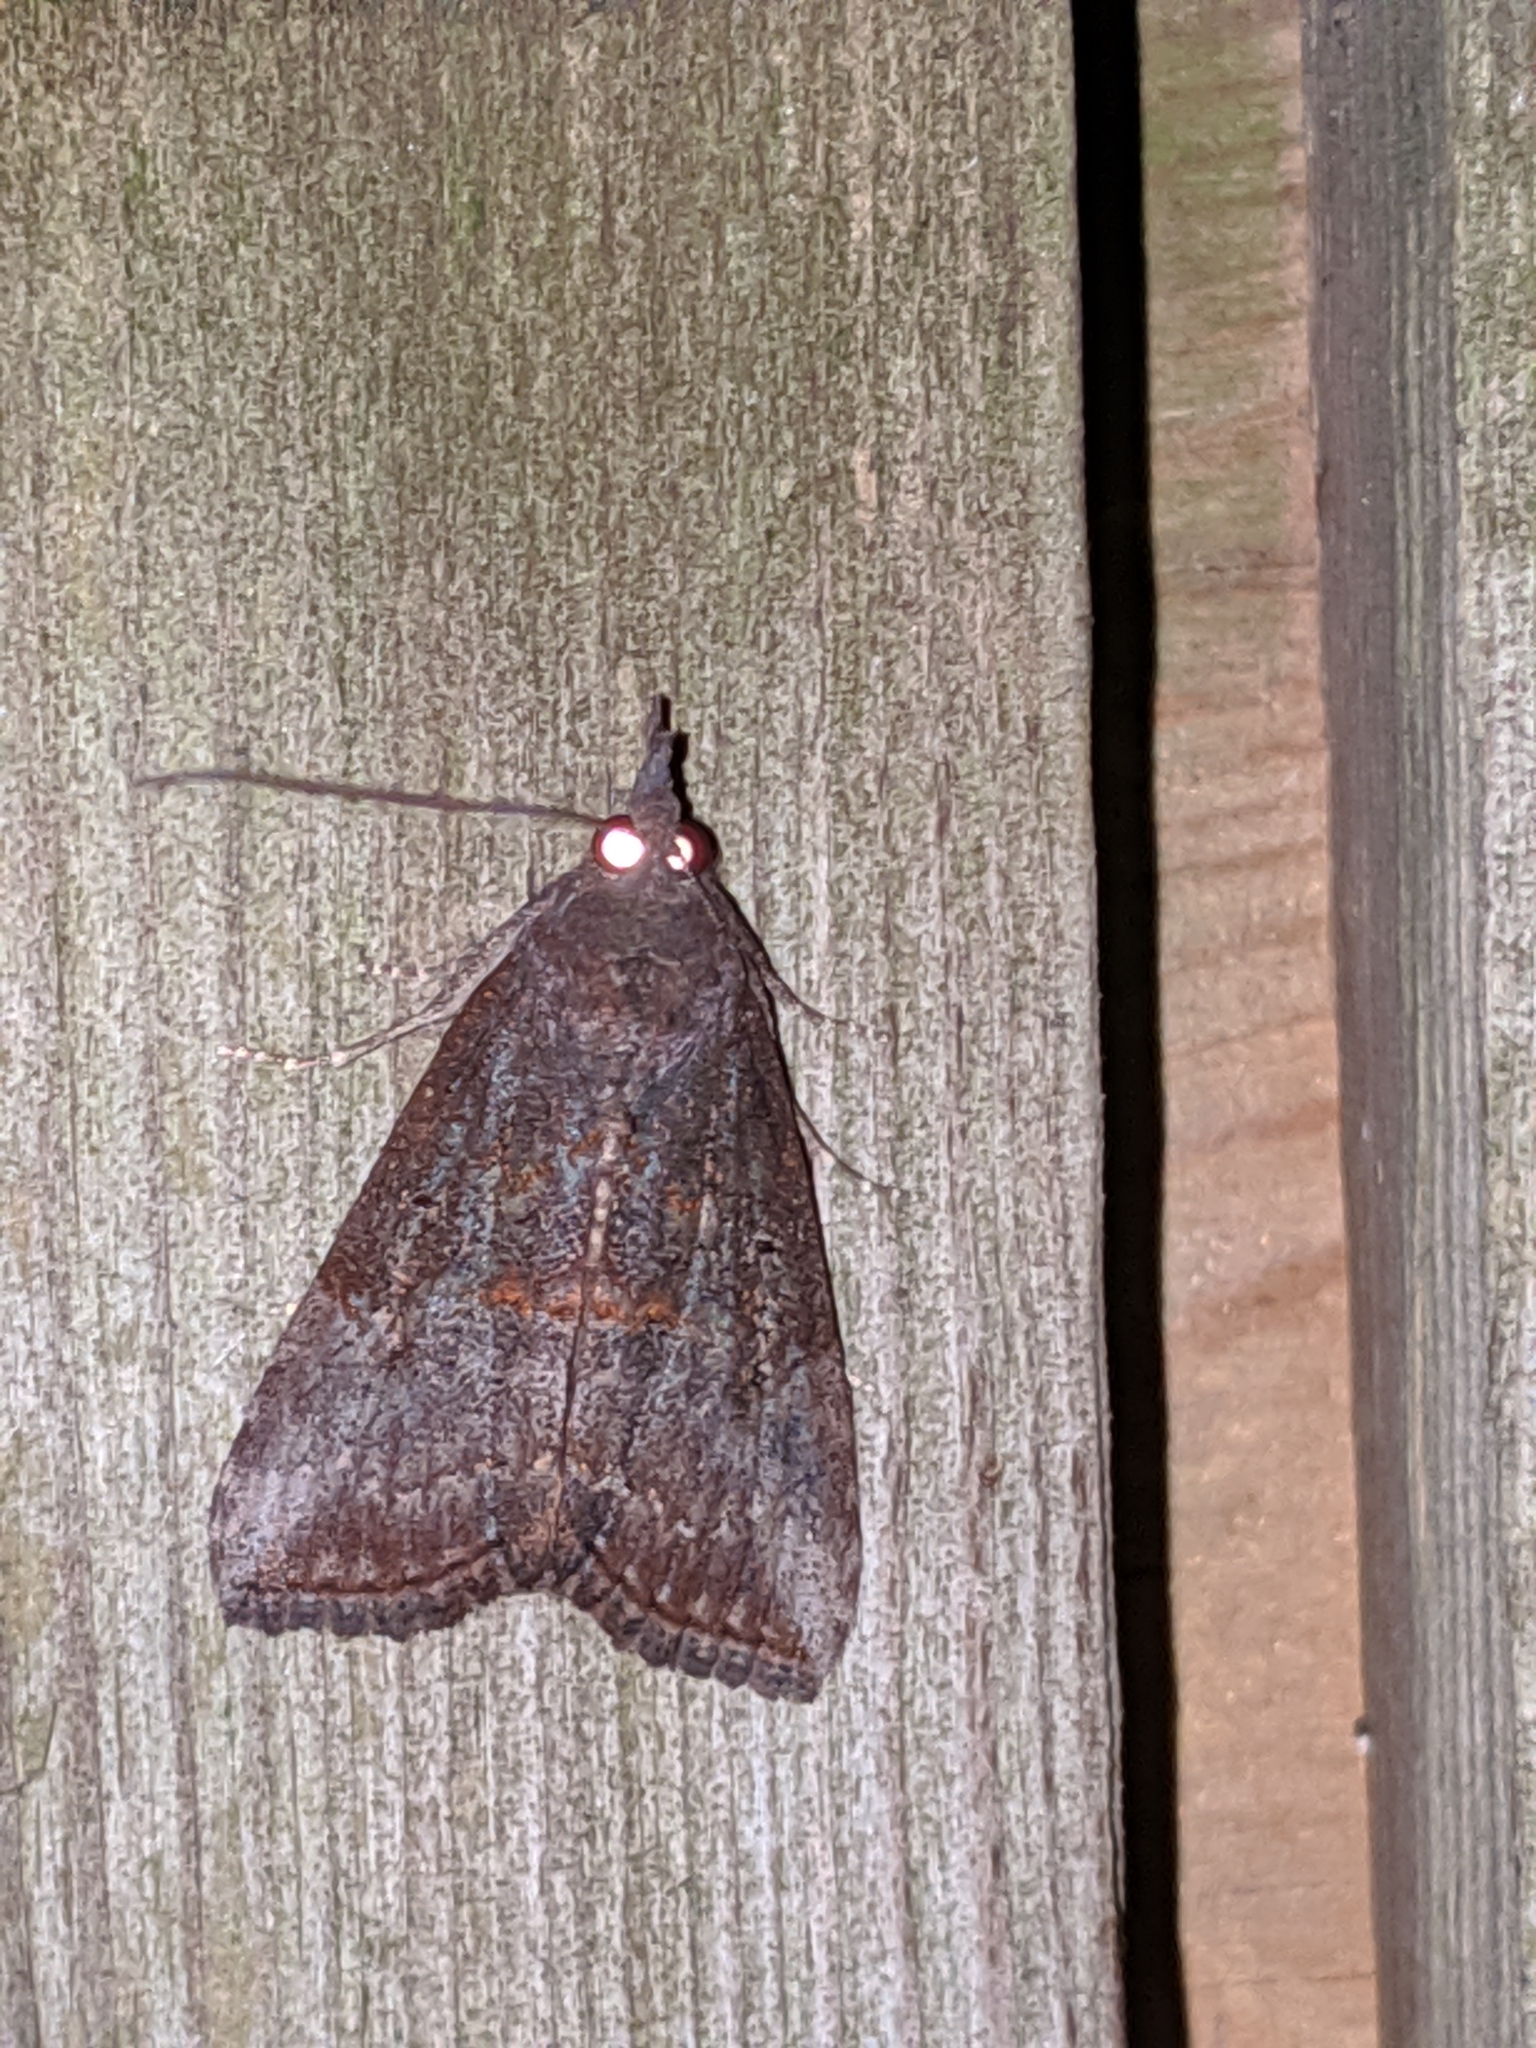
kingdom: Animalia
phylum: Arthropoda
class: Insecta
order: Lepidoptera
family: Erebidae
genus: Hypena
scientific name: Hypena scabra
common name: Green cloverworm
